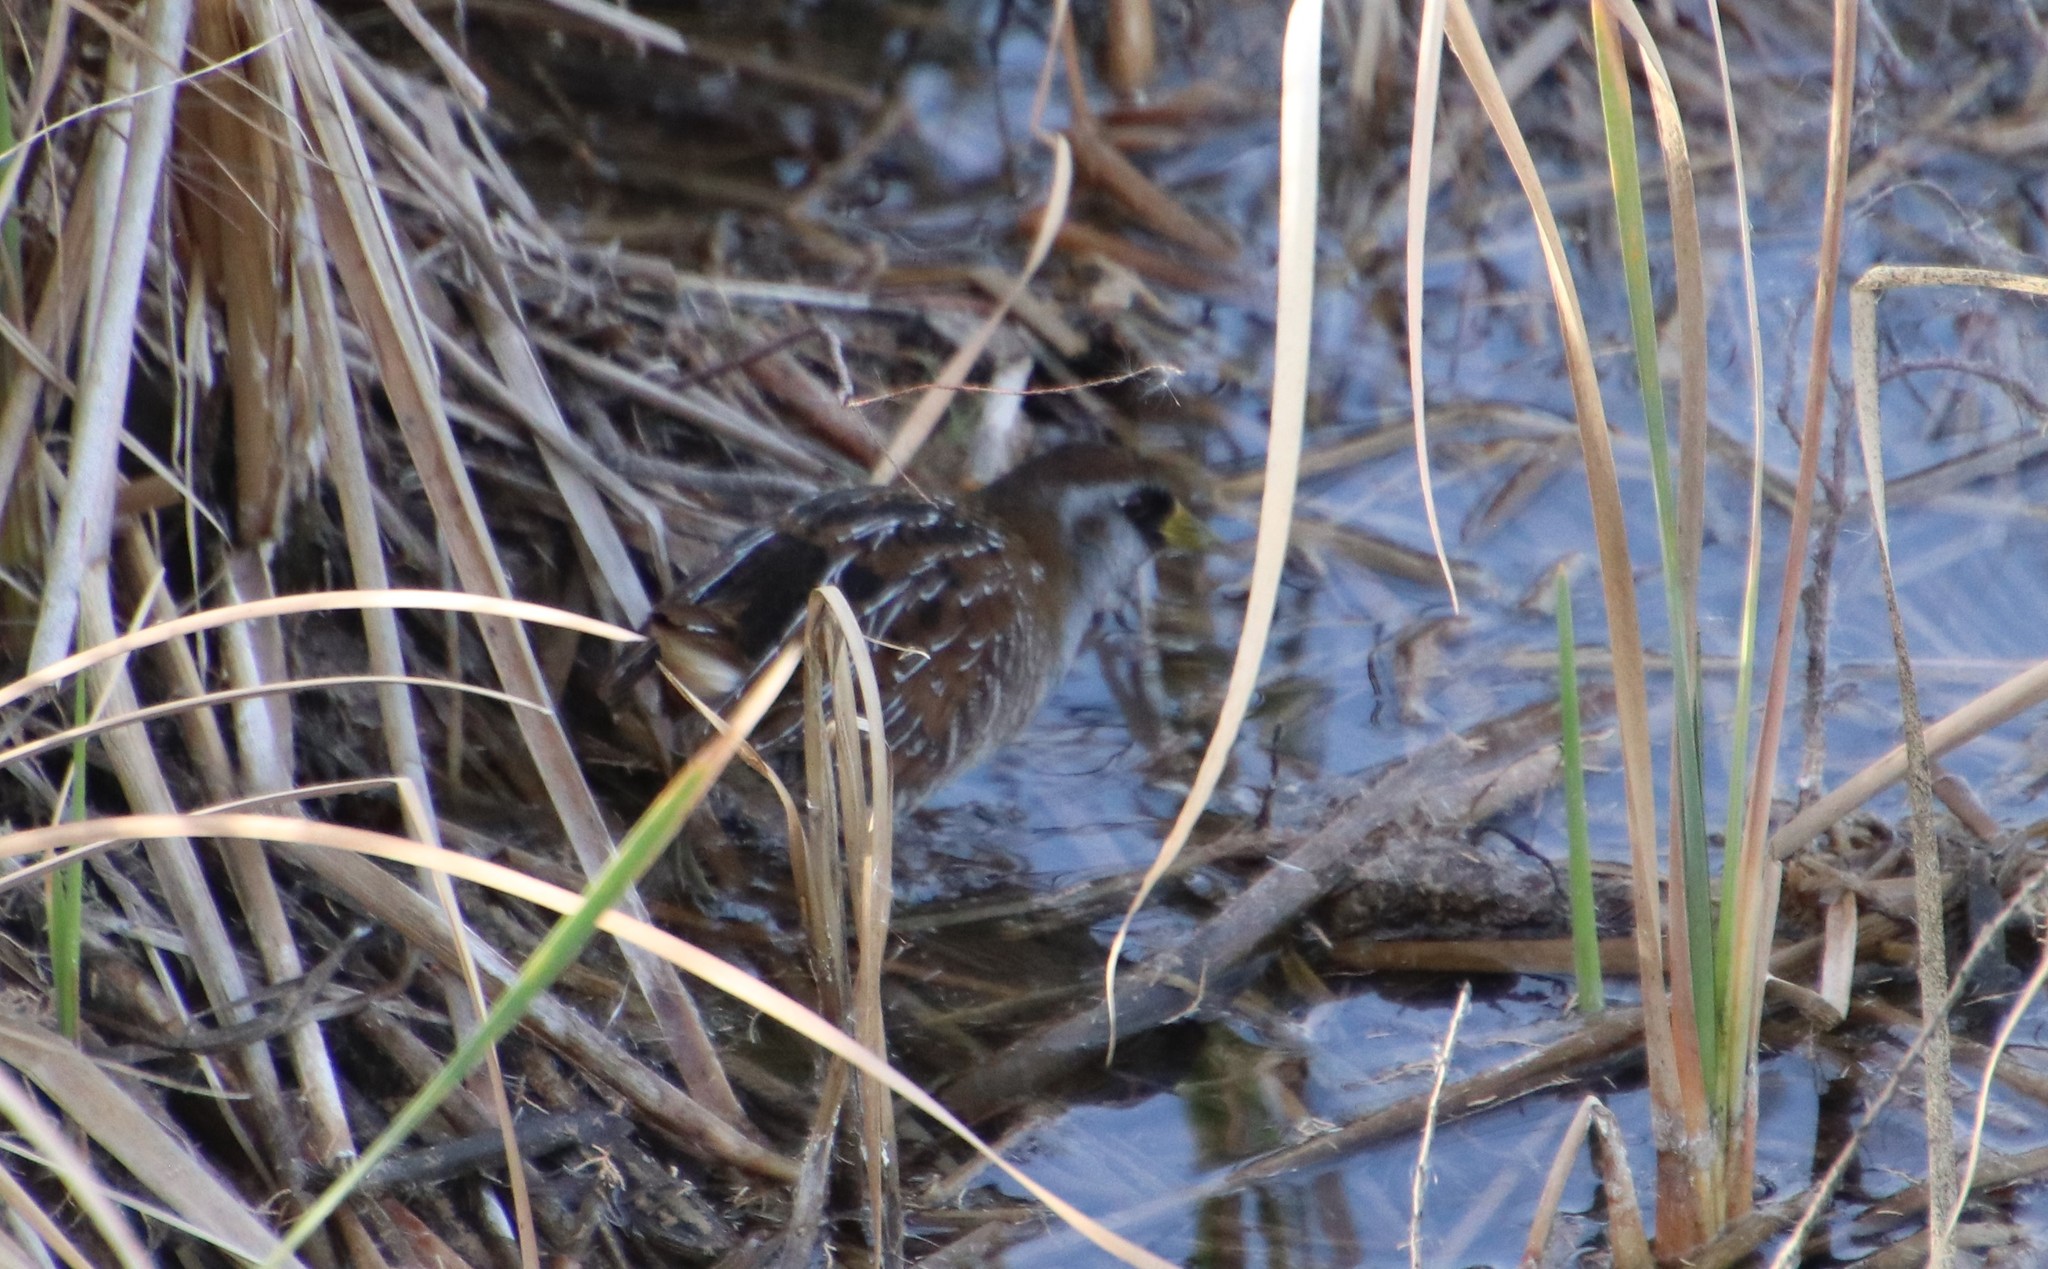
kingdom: Animalia
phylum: Chordata
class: Aves
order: Gruiformes
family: Rallidae
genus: Porzana
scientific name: Porzana carolina
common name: Sora
